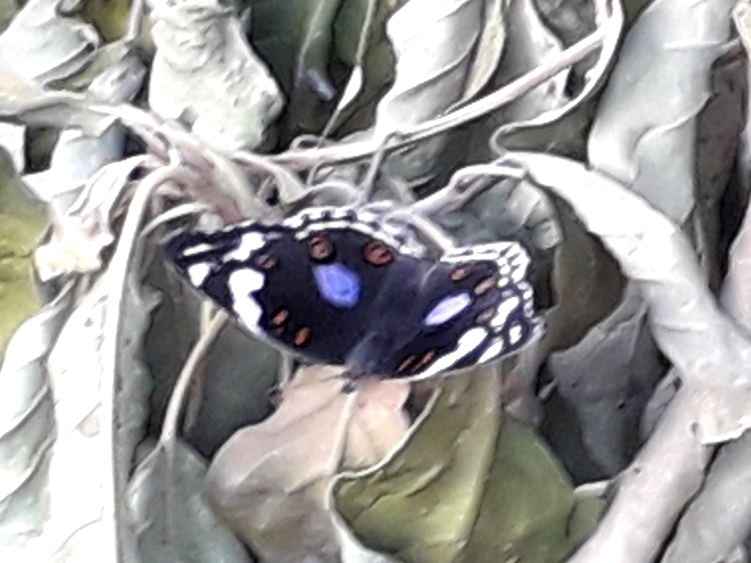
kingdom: Animalia
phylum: Arthropoda
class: Insecta
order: Lepidoptera
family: Nymphalidae
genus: Junonia
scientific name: Junonia oenone
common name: Dark blue pansy
